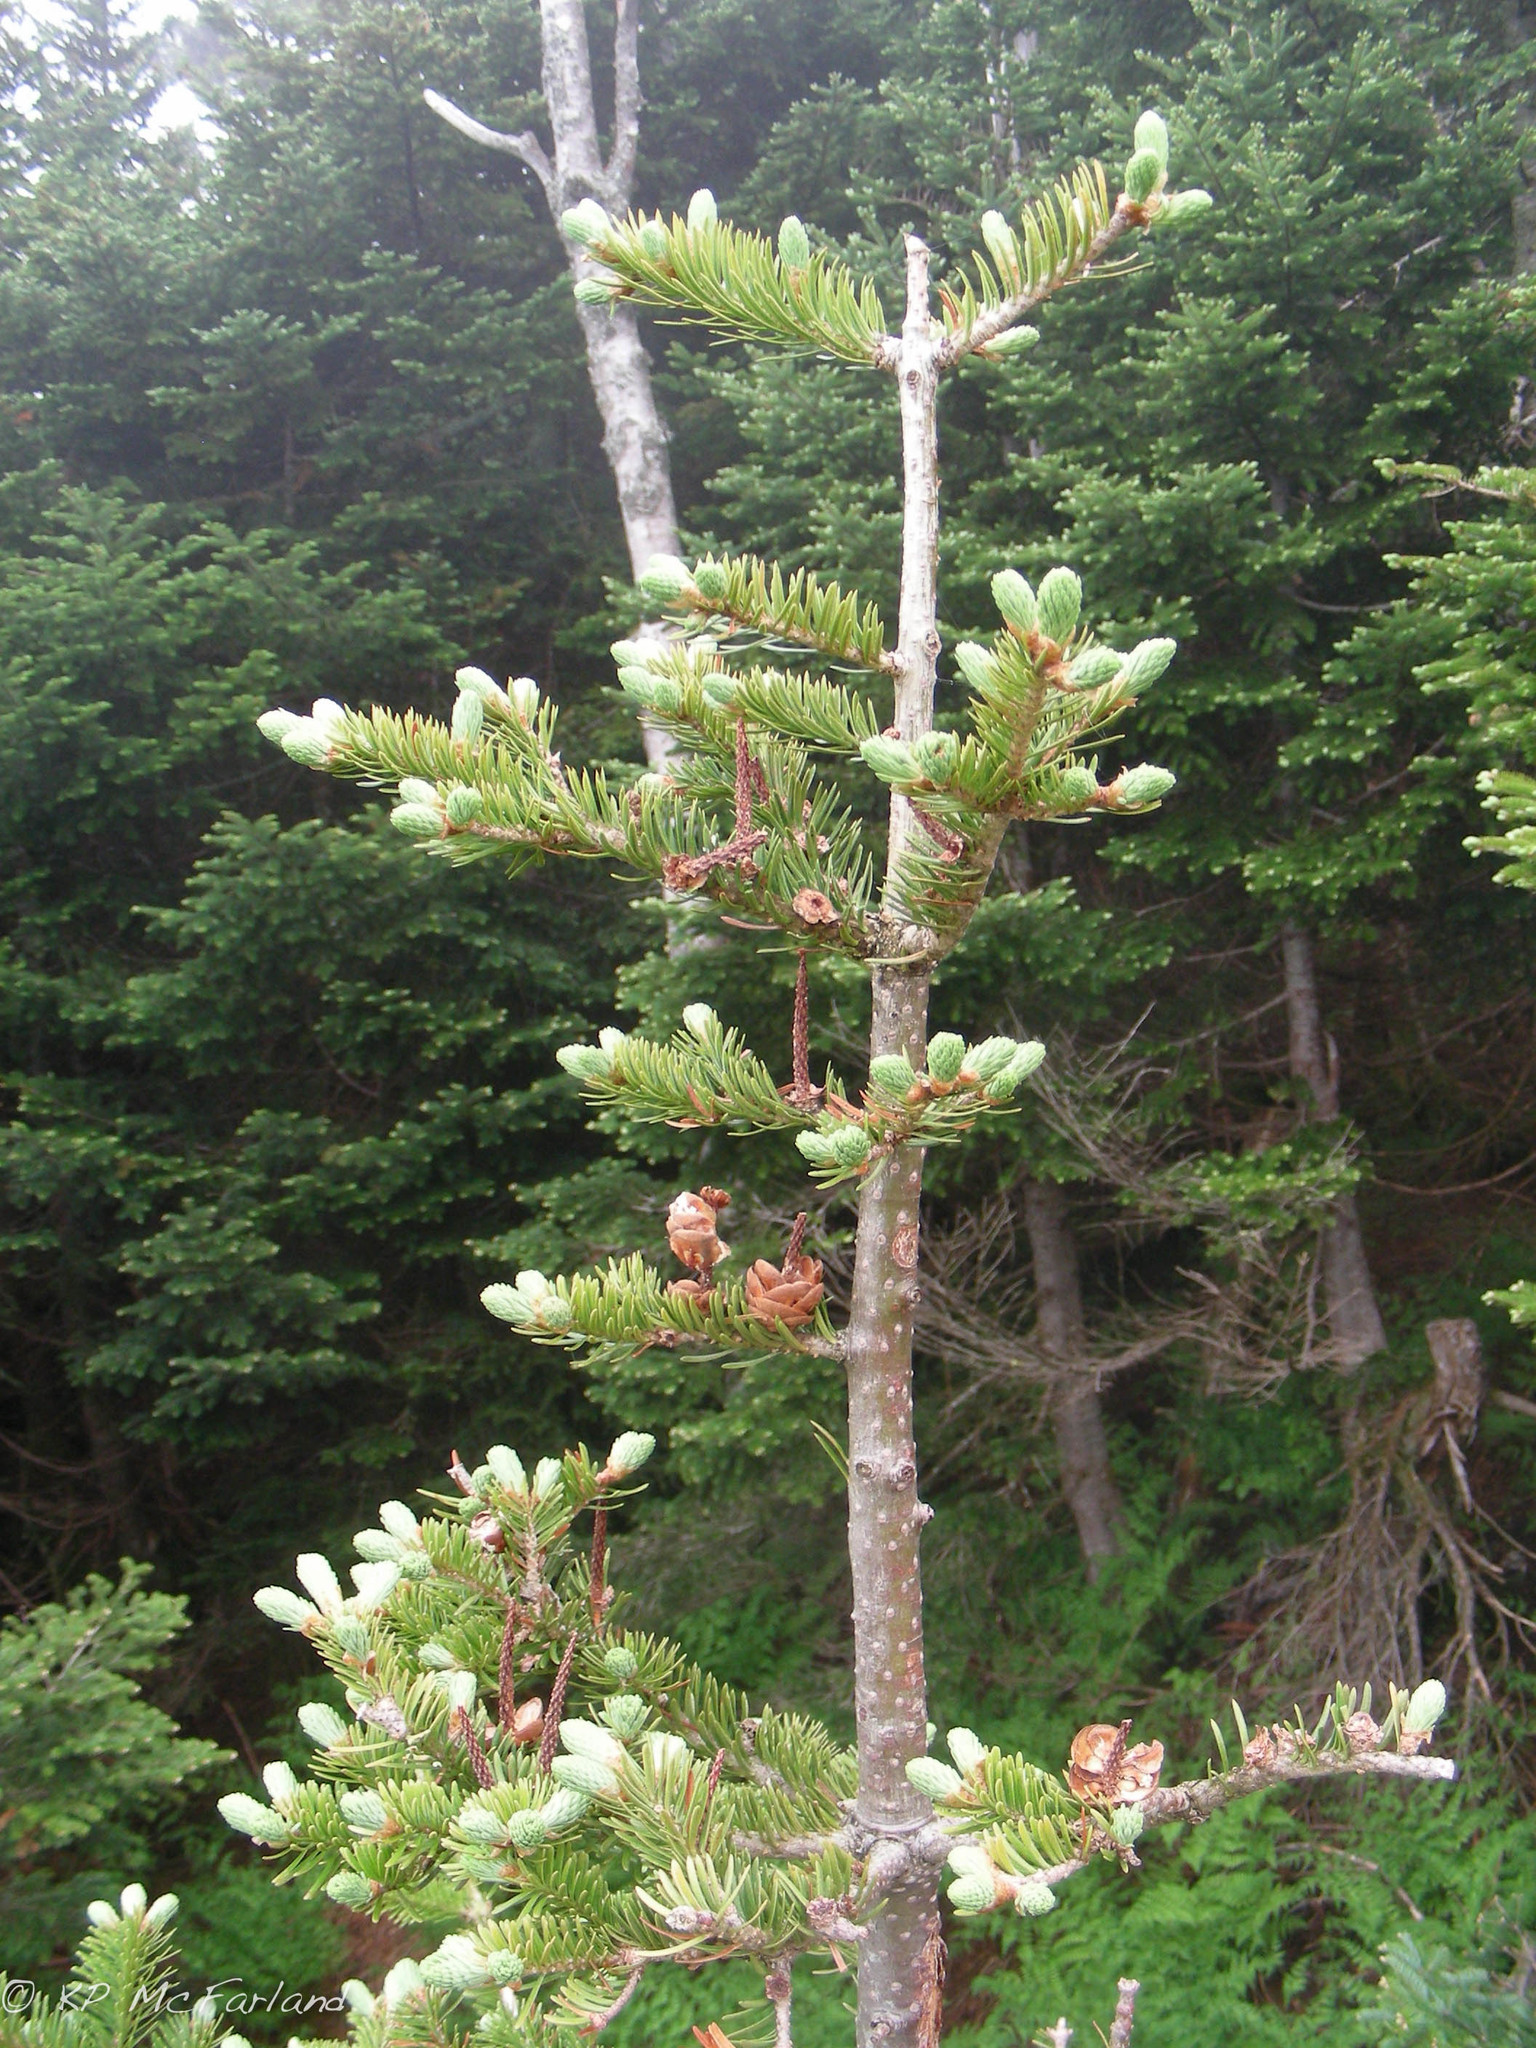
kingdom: Plantae
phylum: Tracheophyta
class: Pinopsida
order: Pinales
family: Pinaceae
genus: Abies
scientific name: Abies balsamea
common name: Balsam fir
